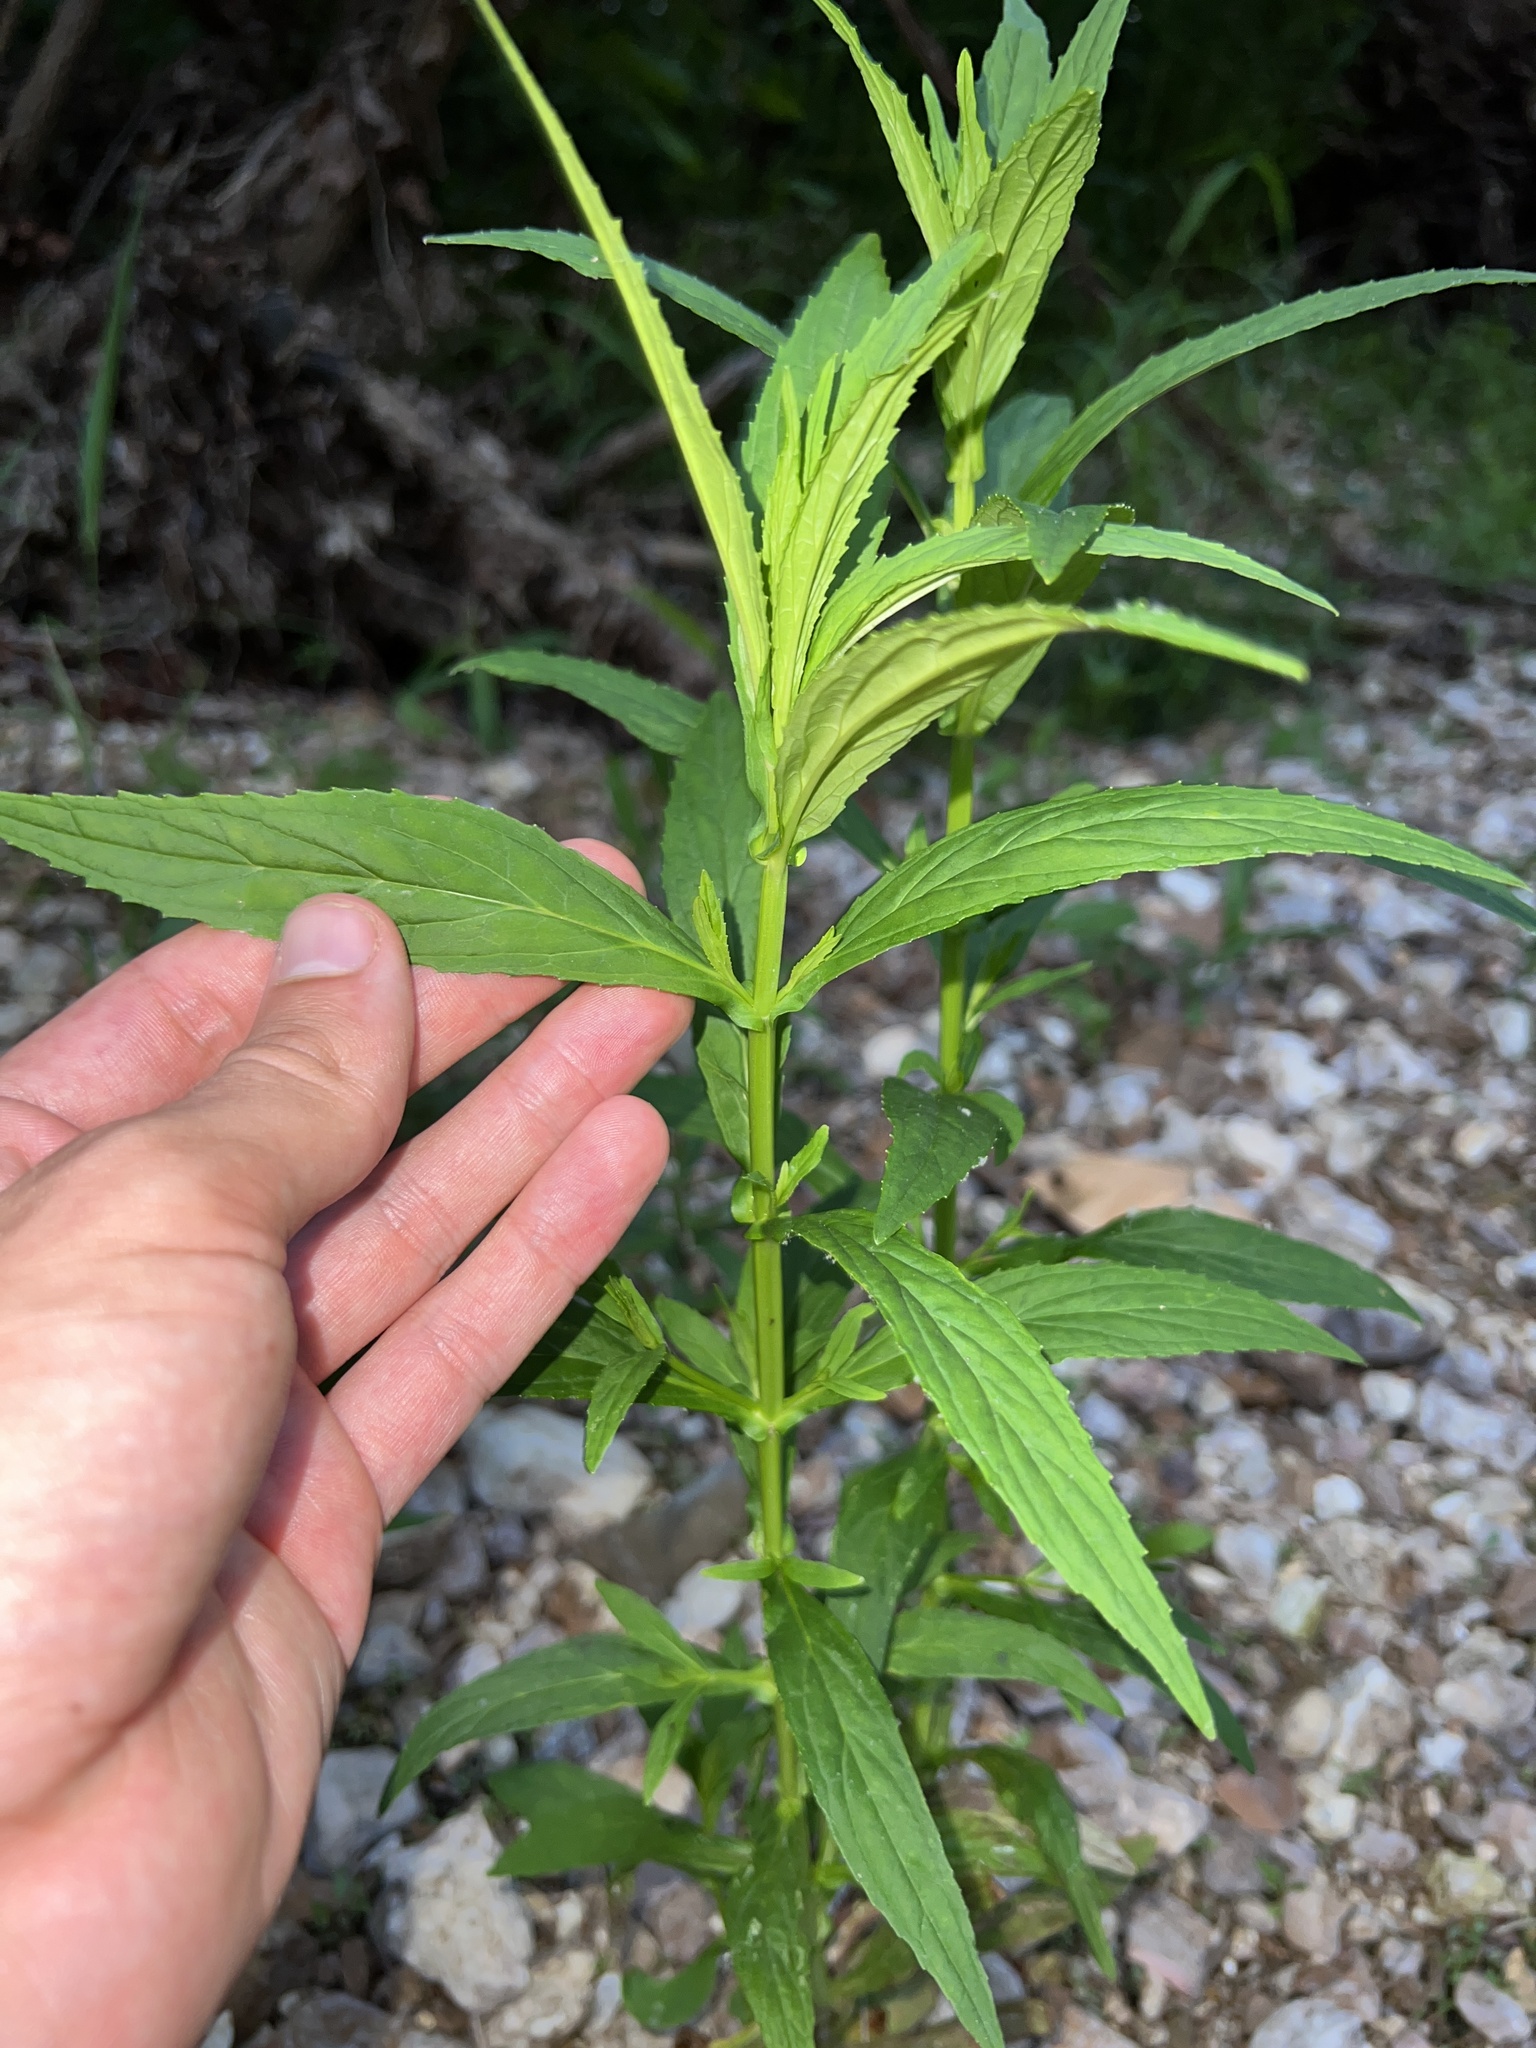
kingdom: Plantae
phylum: Tracheophyta
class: Magnoliopsida
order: Myrtales
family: Onagraceae
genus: Epilobium
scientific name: Epilobium coloratum
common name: Bronze willowherb
